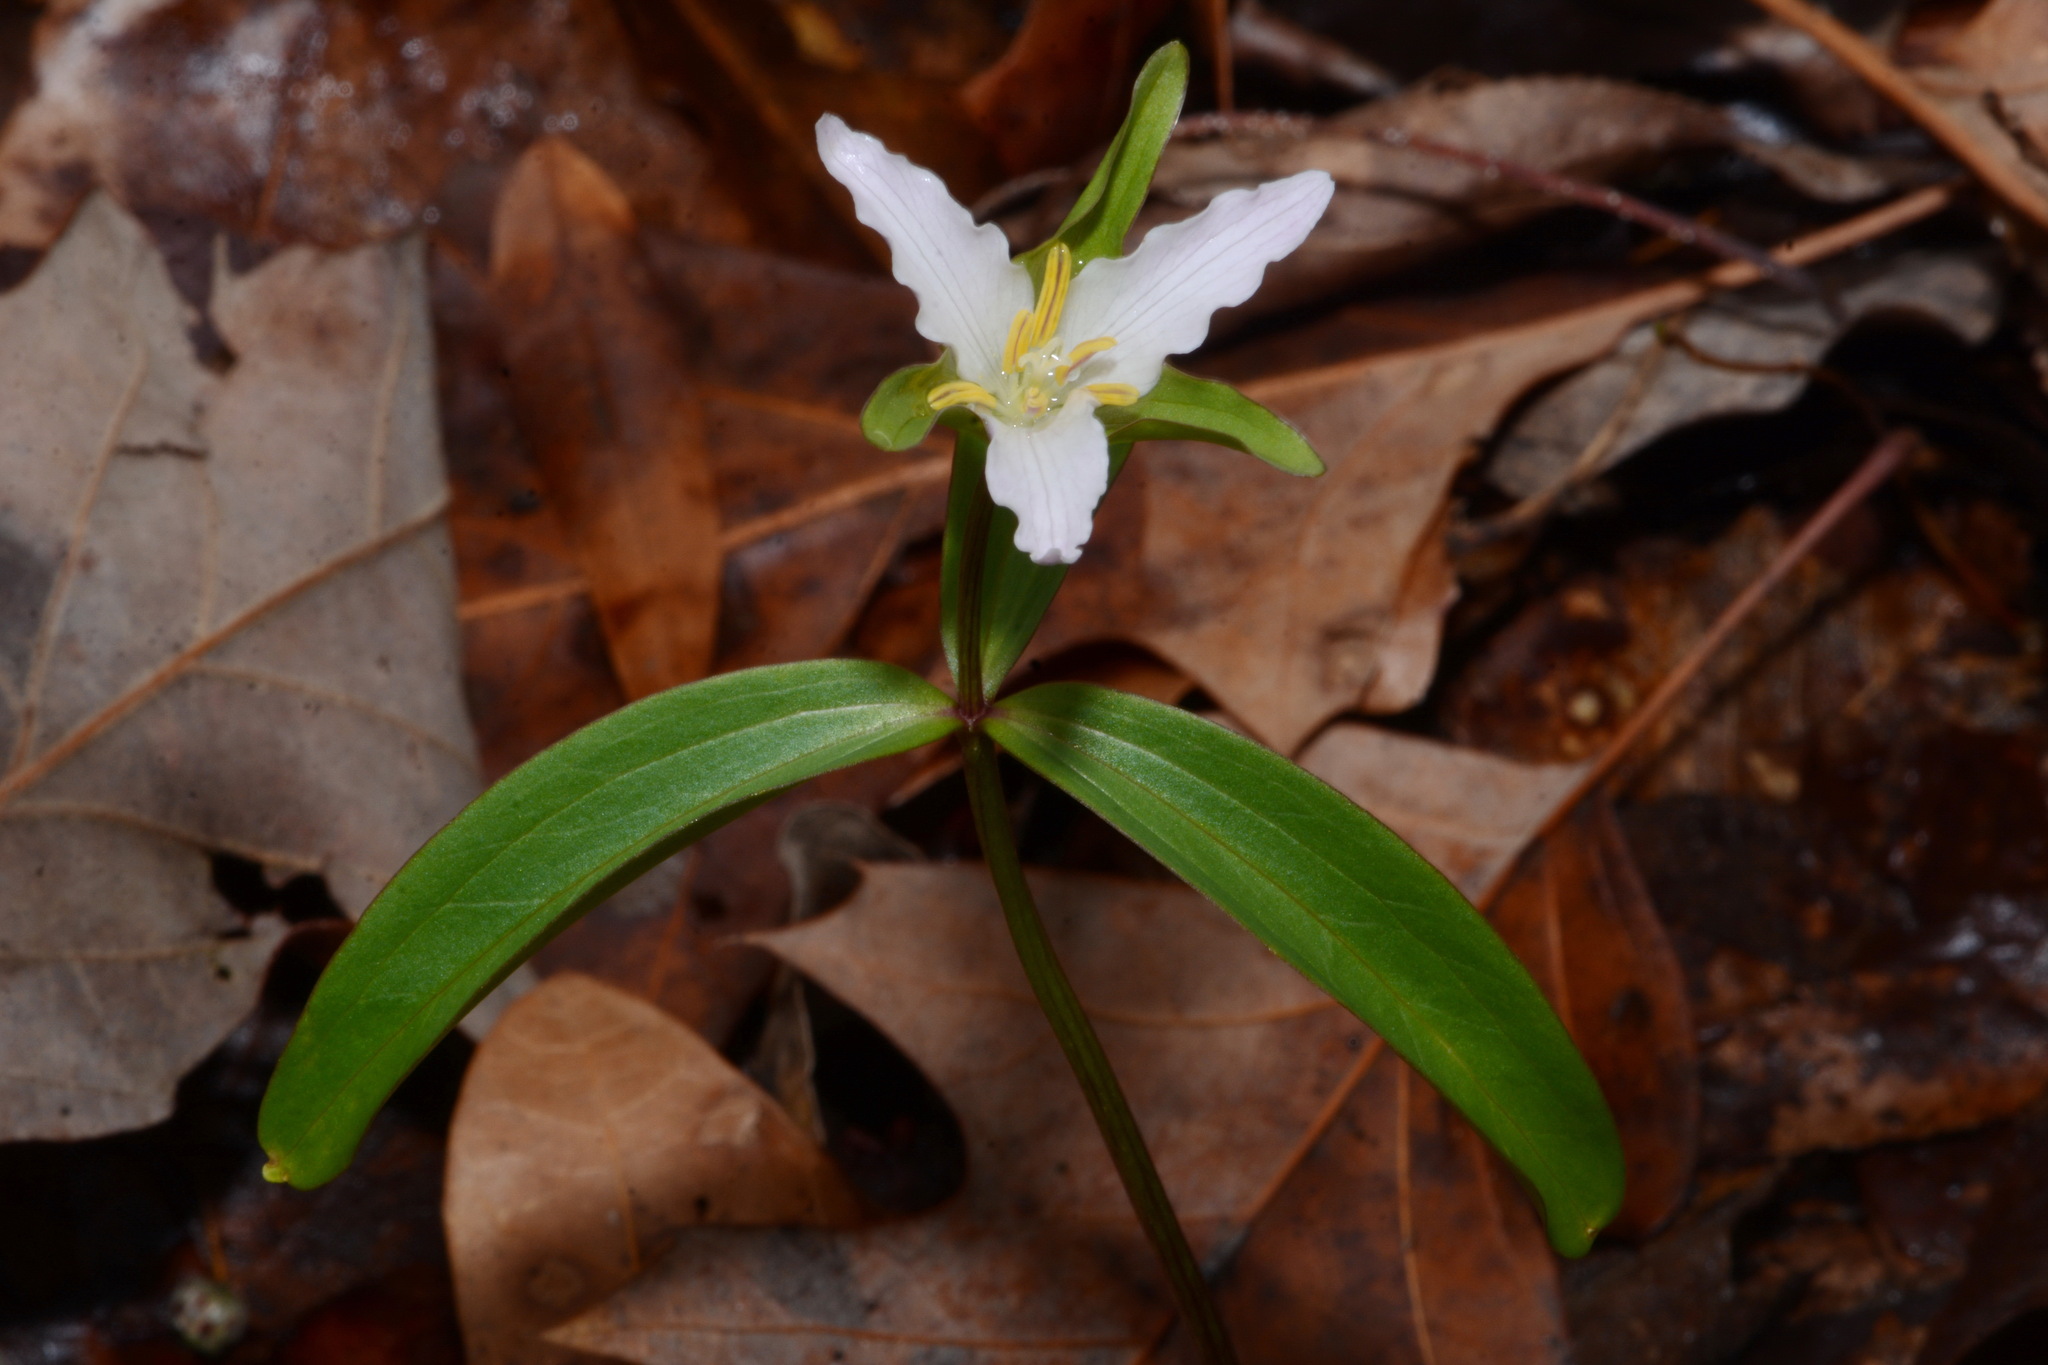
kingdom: Plantae
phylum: Tracheophyta
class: Liliopsida
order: Liliales
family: Melanthiaceae
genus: Trillium
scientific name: Trillium pusillum
